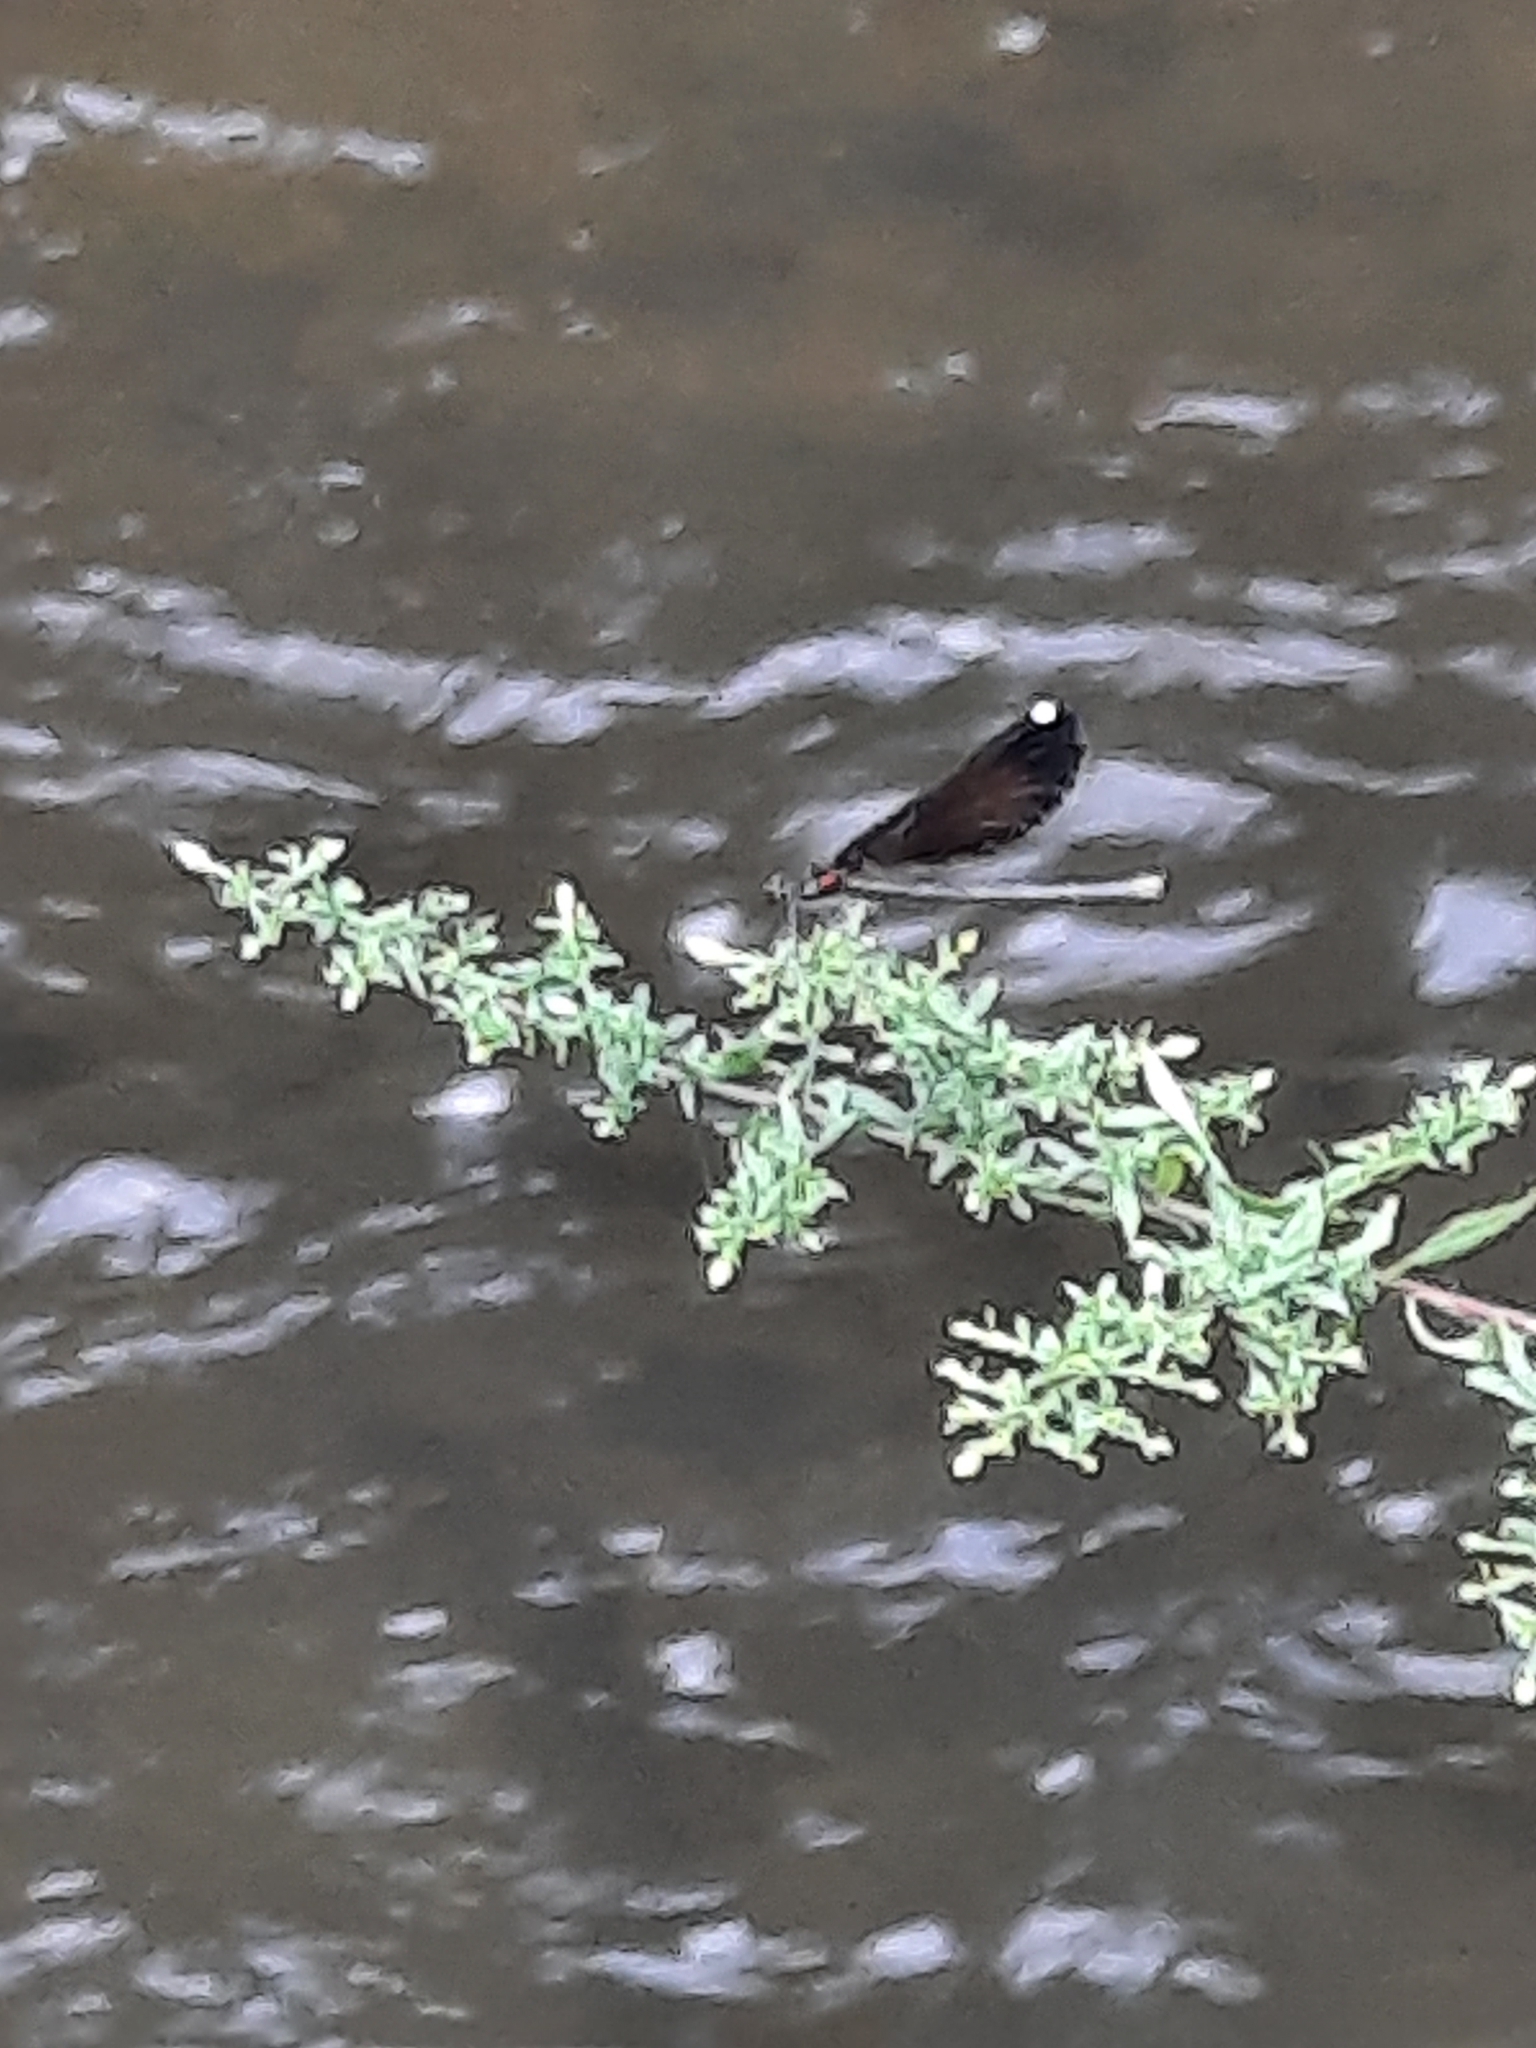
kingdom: Animalia
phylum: Arthropoda
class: Insecta
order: Odonata
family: Calopterygidae
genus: Calopteryx
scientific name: Calopteryx maculata
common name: Ebony jewelwing
